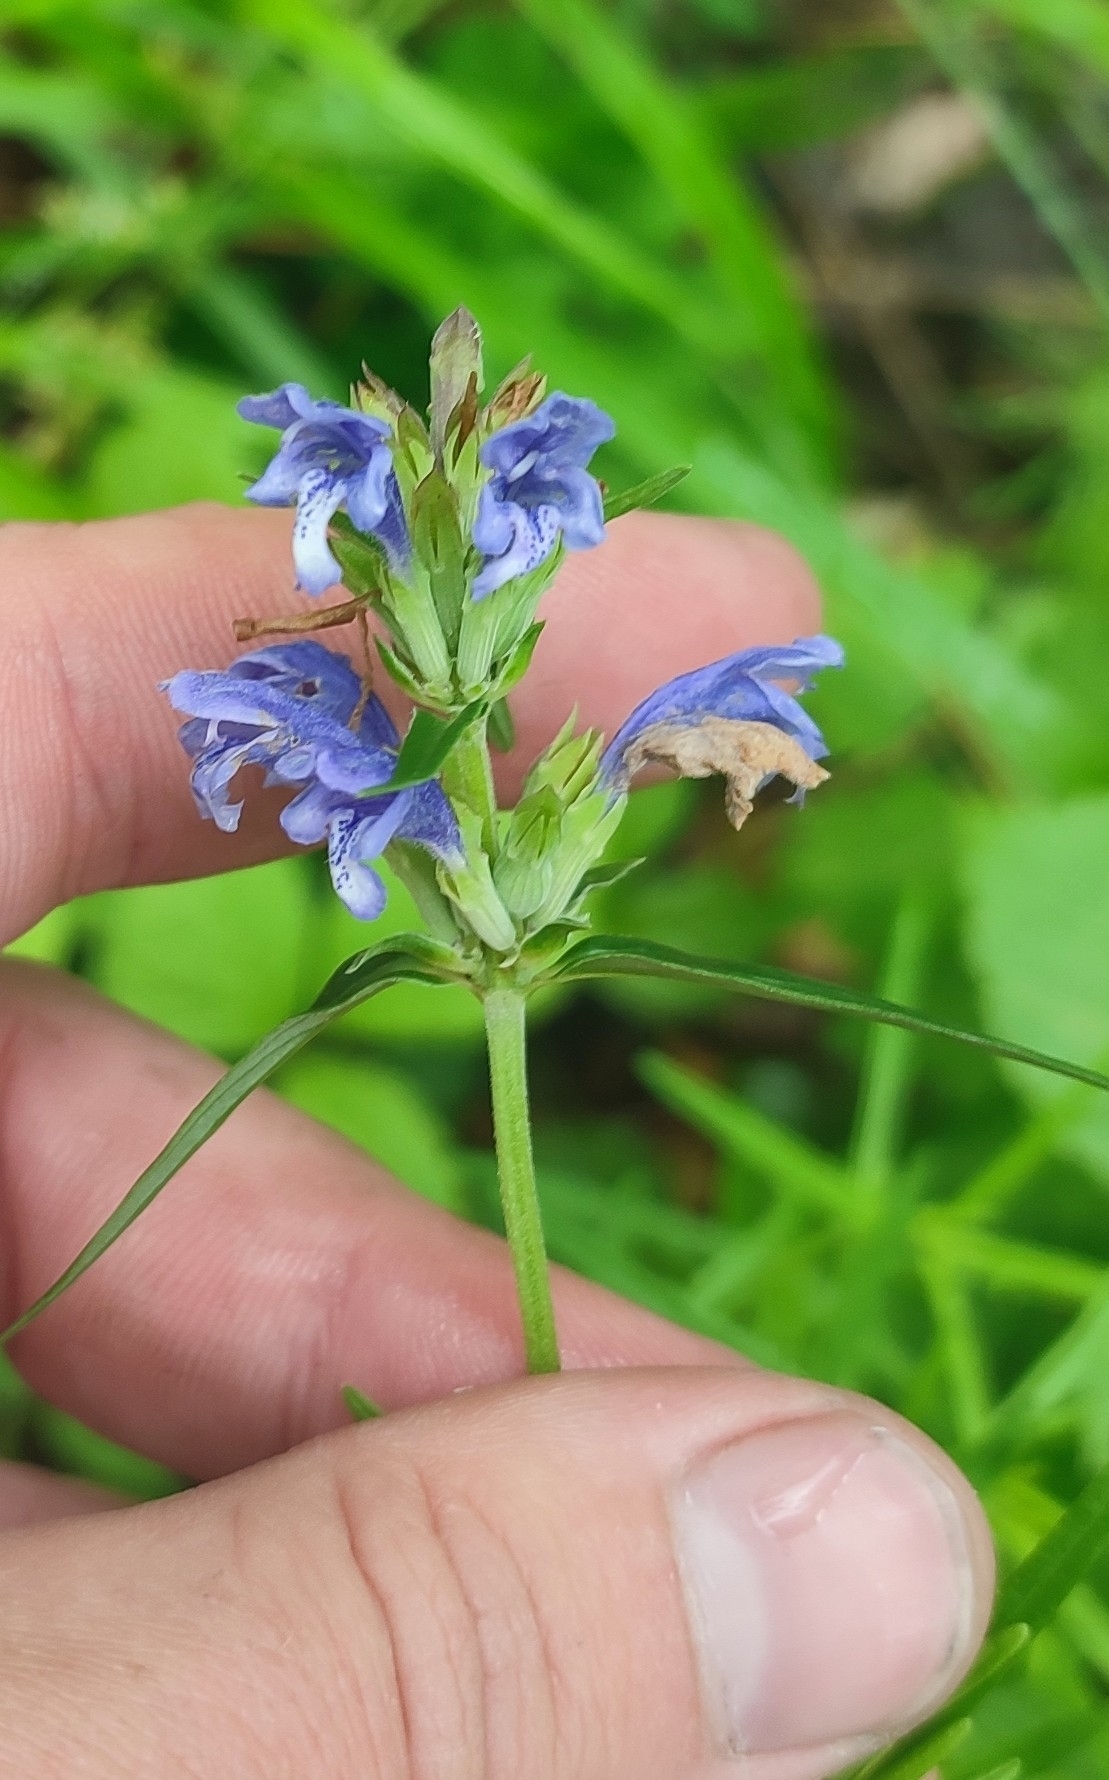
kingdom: Plantae
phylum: Tracheophyta
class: Magnoliopsida
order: Lamiales
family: Lamiaceae
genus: Dracocephalum
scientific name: Dracocephalum ruyschiana
